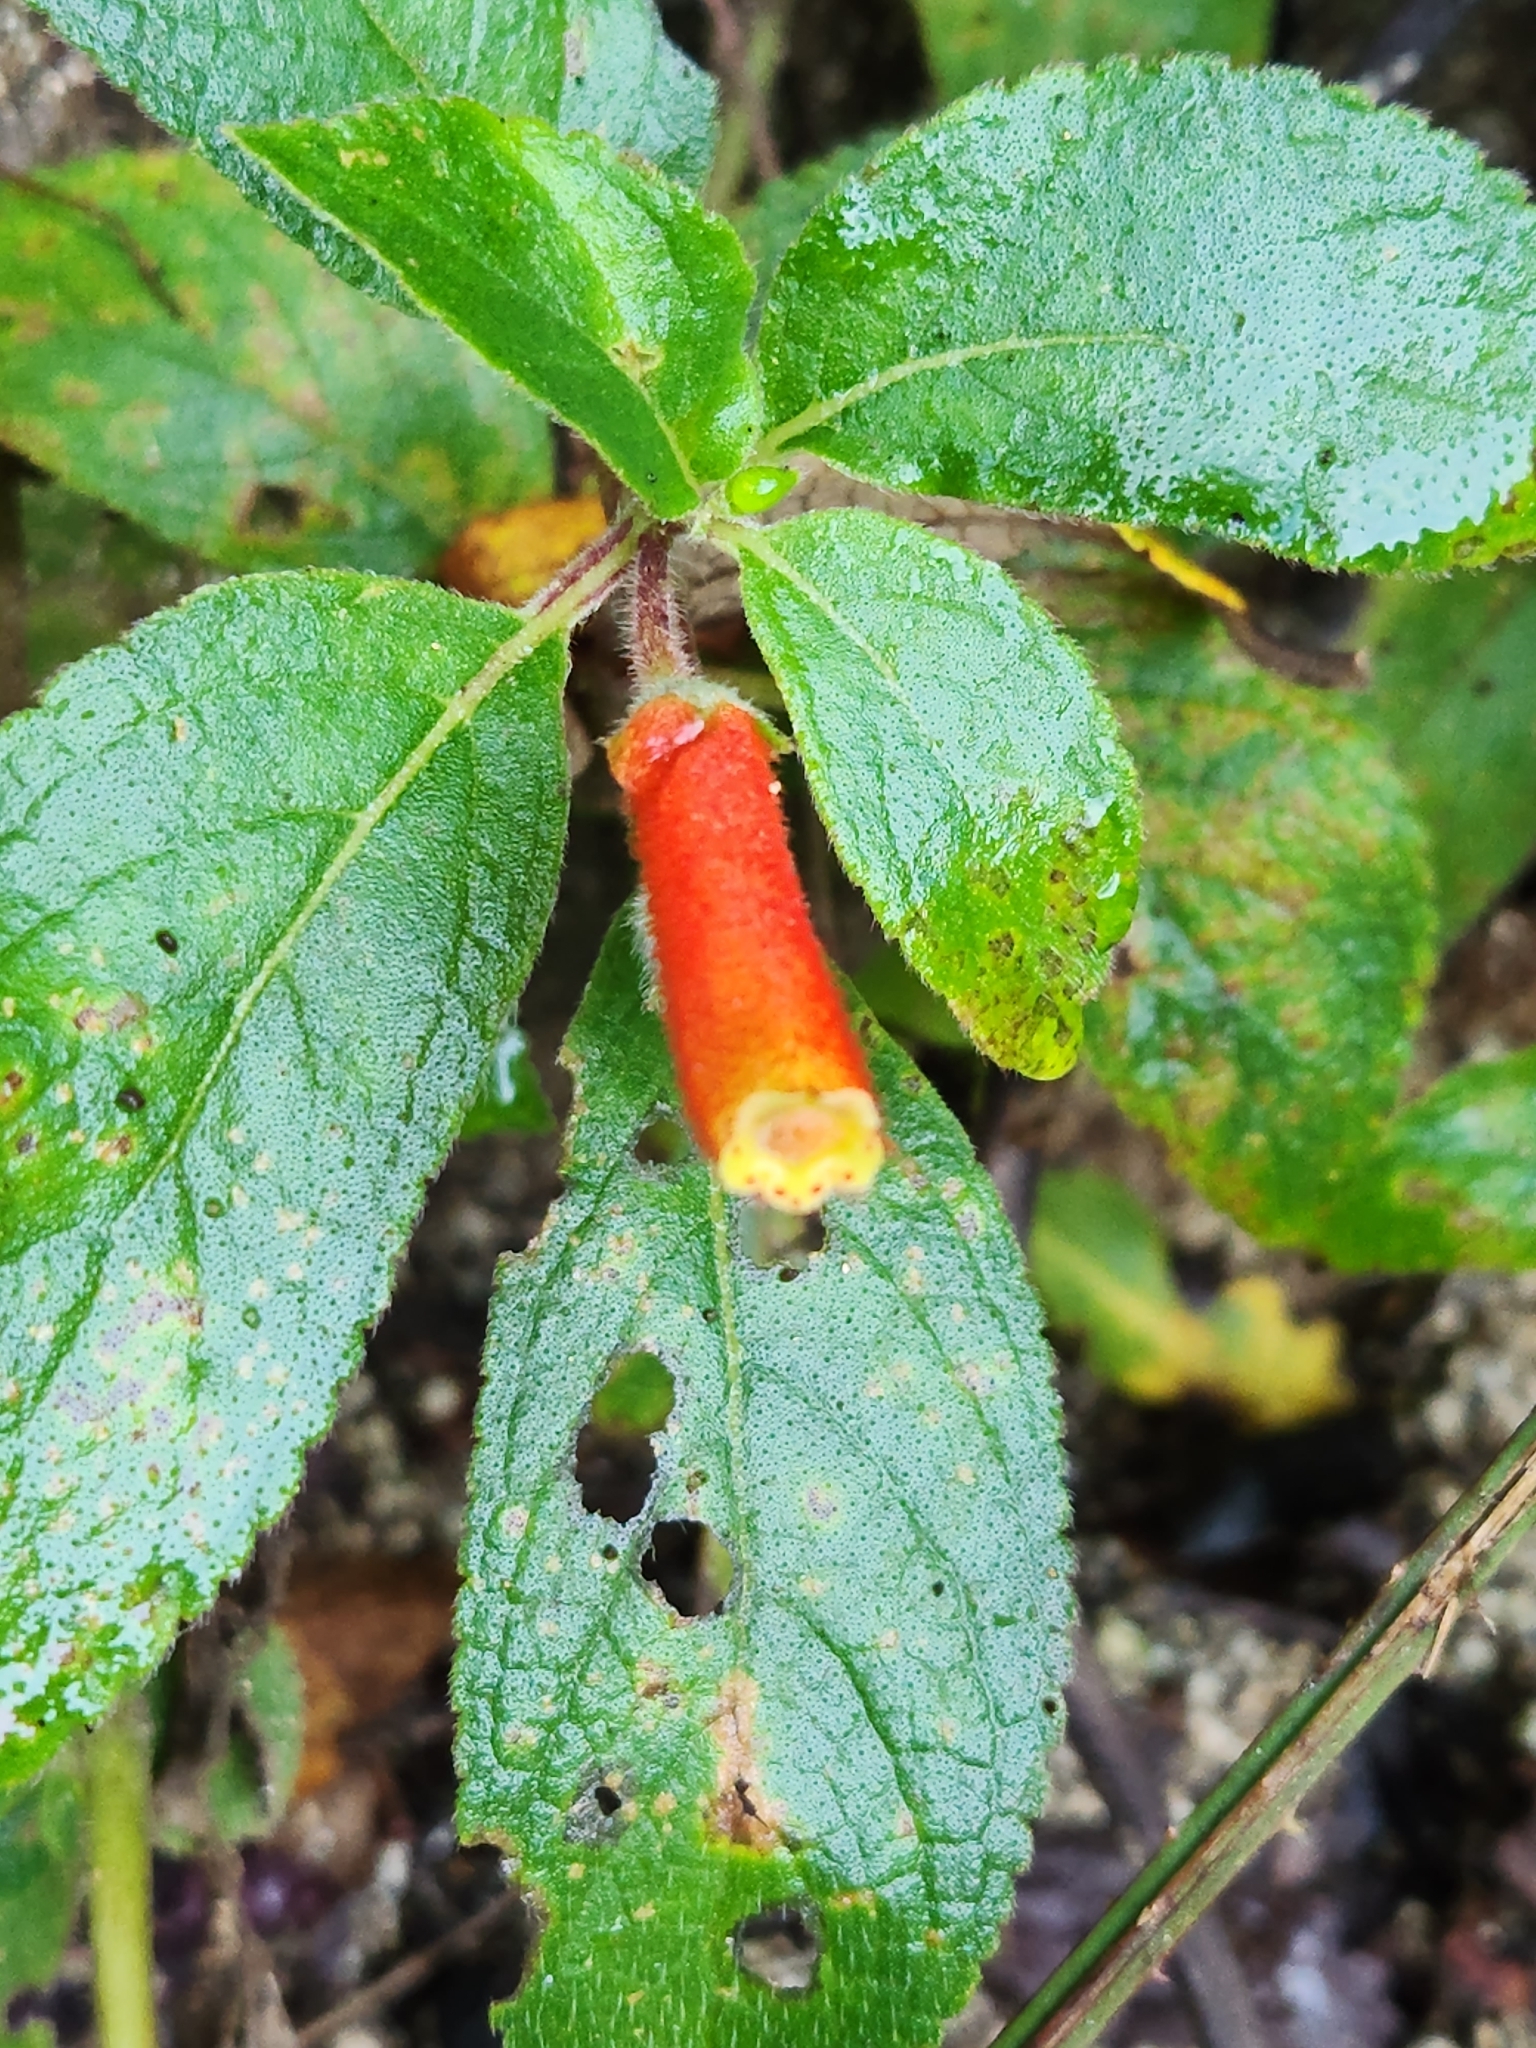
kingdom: Plantae
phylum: Tracheophyta
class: Magnoliopsida
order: Lamiales
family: Gesneriaceae
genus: Kohleria
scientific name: Kohleria tubiflora
